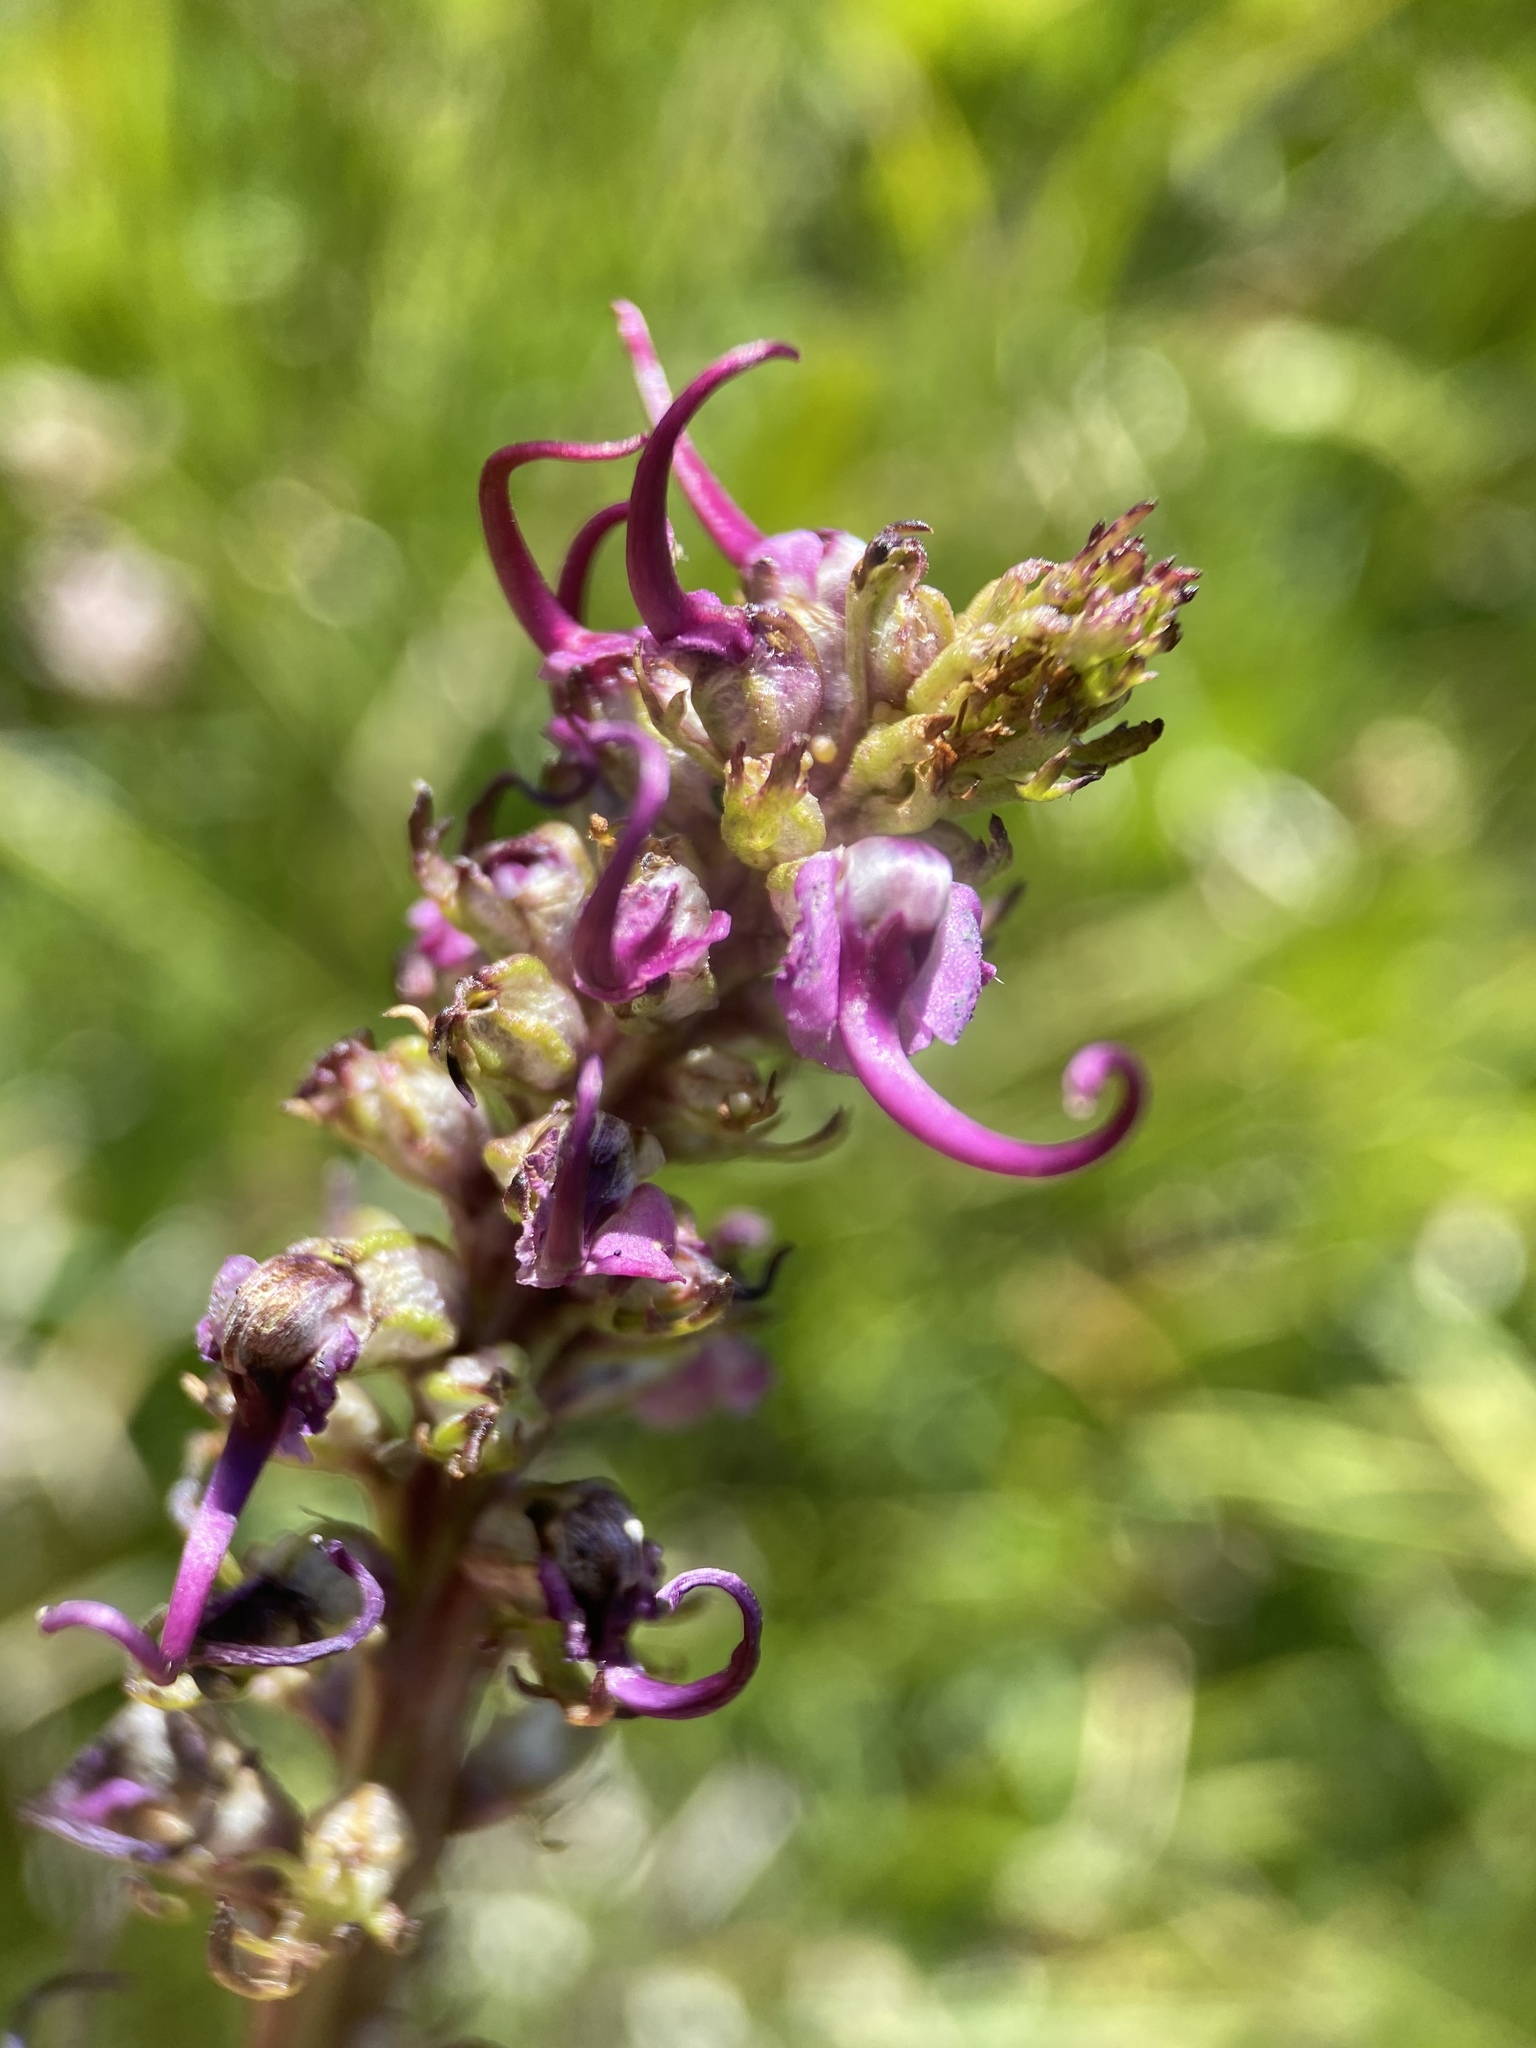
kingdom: Plantae
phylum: Tracheophyta
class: Magnoliopsida
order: Lamiales
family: Orobanchaceae
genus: Pedicularis
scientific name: Pedicularis groenlandica
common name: Elephant's-head
